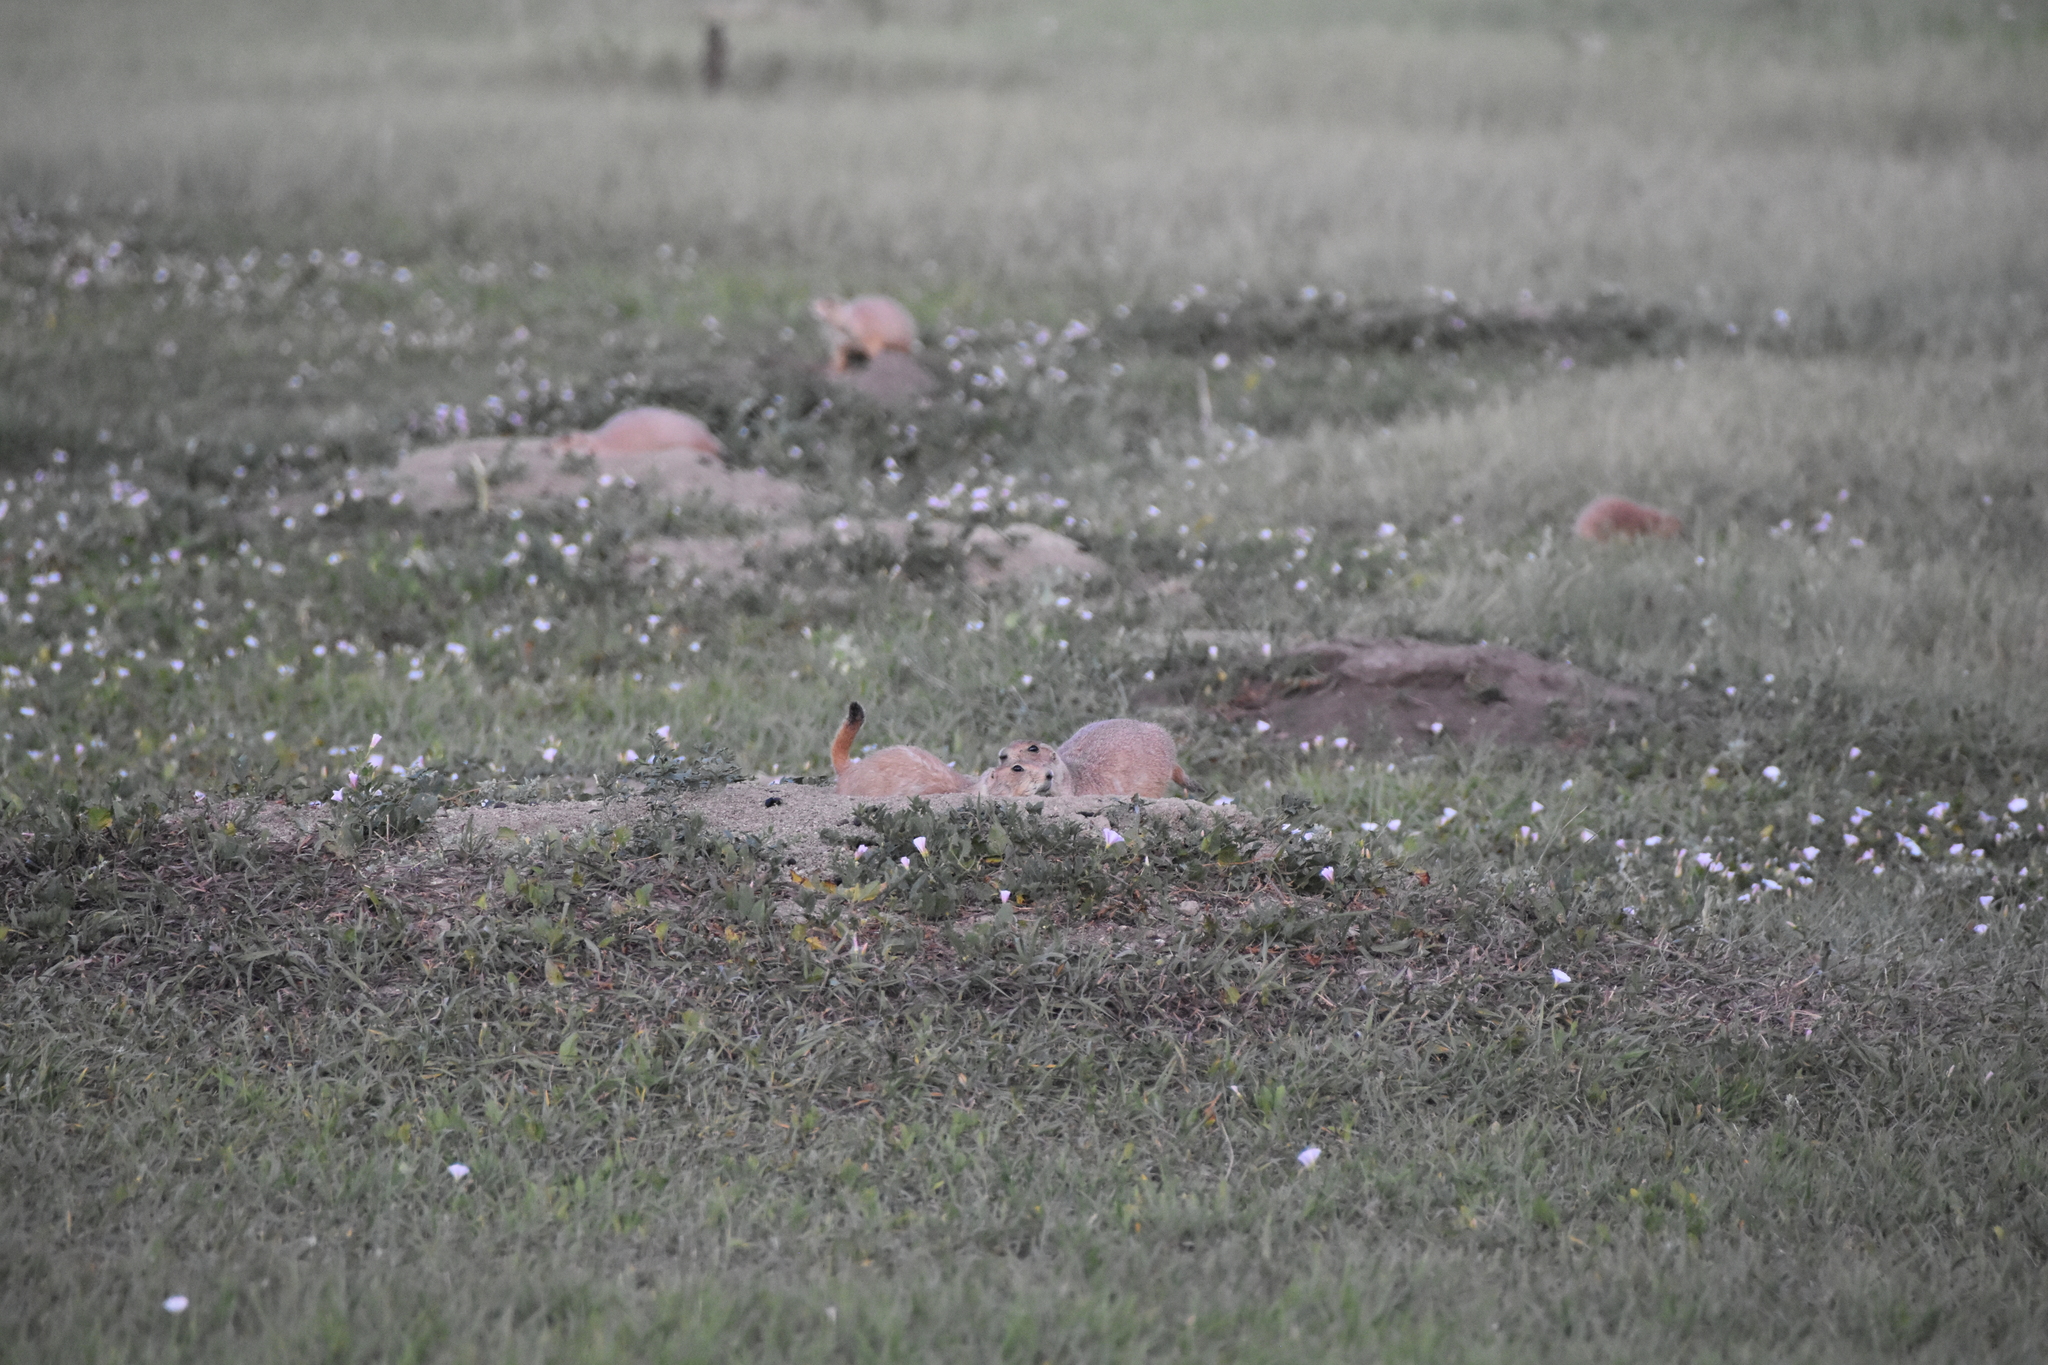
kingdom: Animalia
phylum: Chordata
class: Mammalia
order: Rodentia
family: Sciuridae
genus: Cynomys
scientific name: Cynomys ludovicianus
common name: Black-tailed prairie dog
